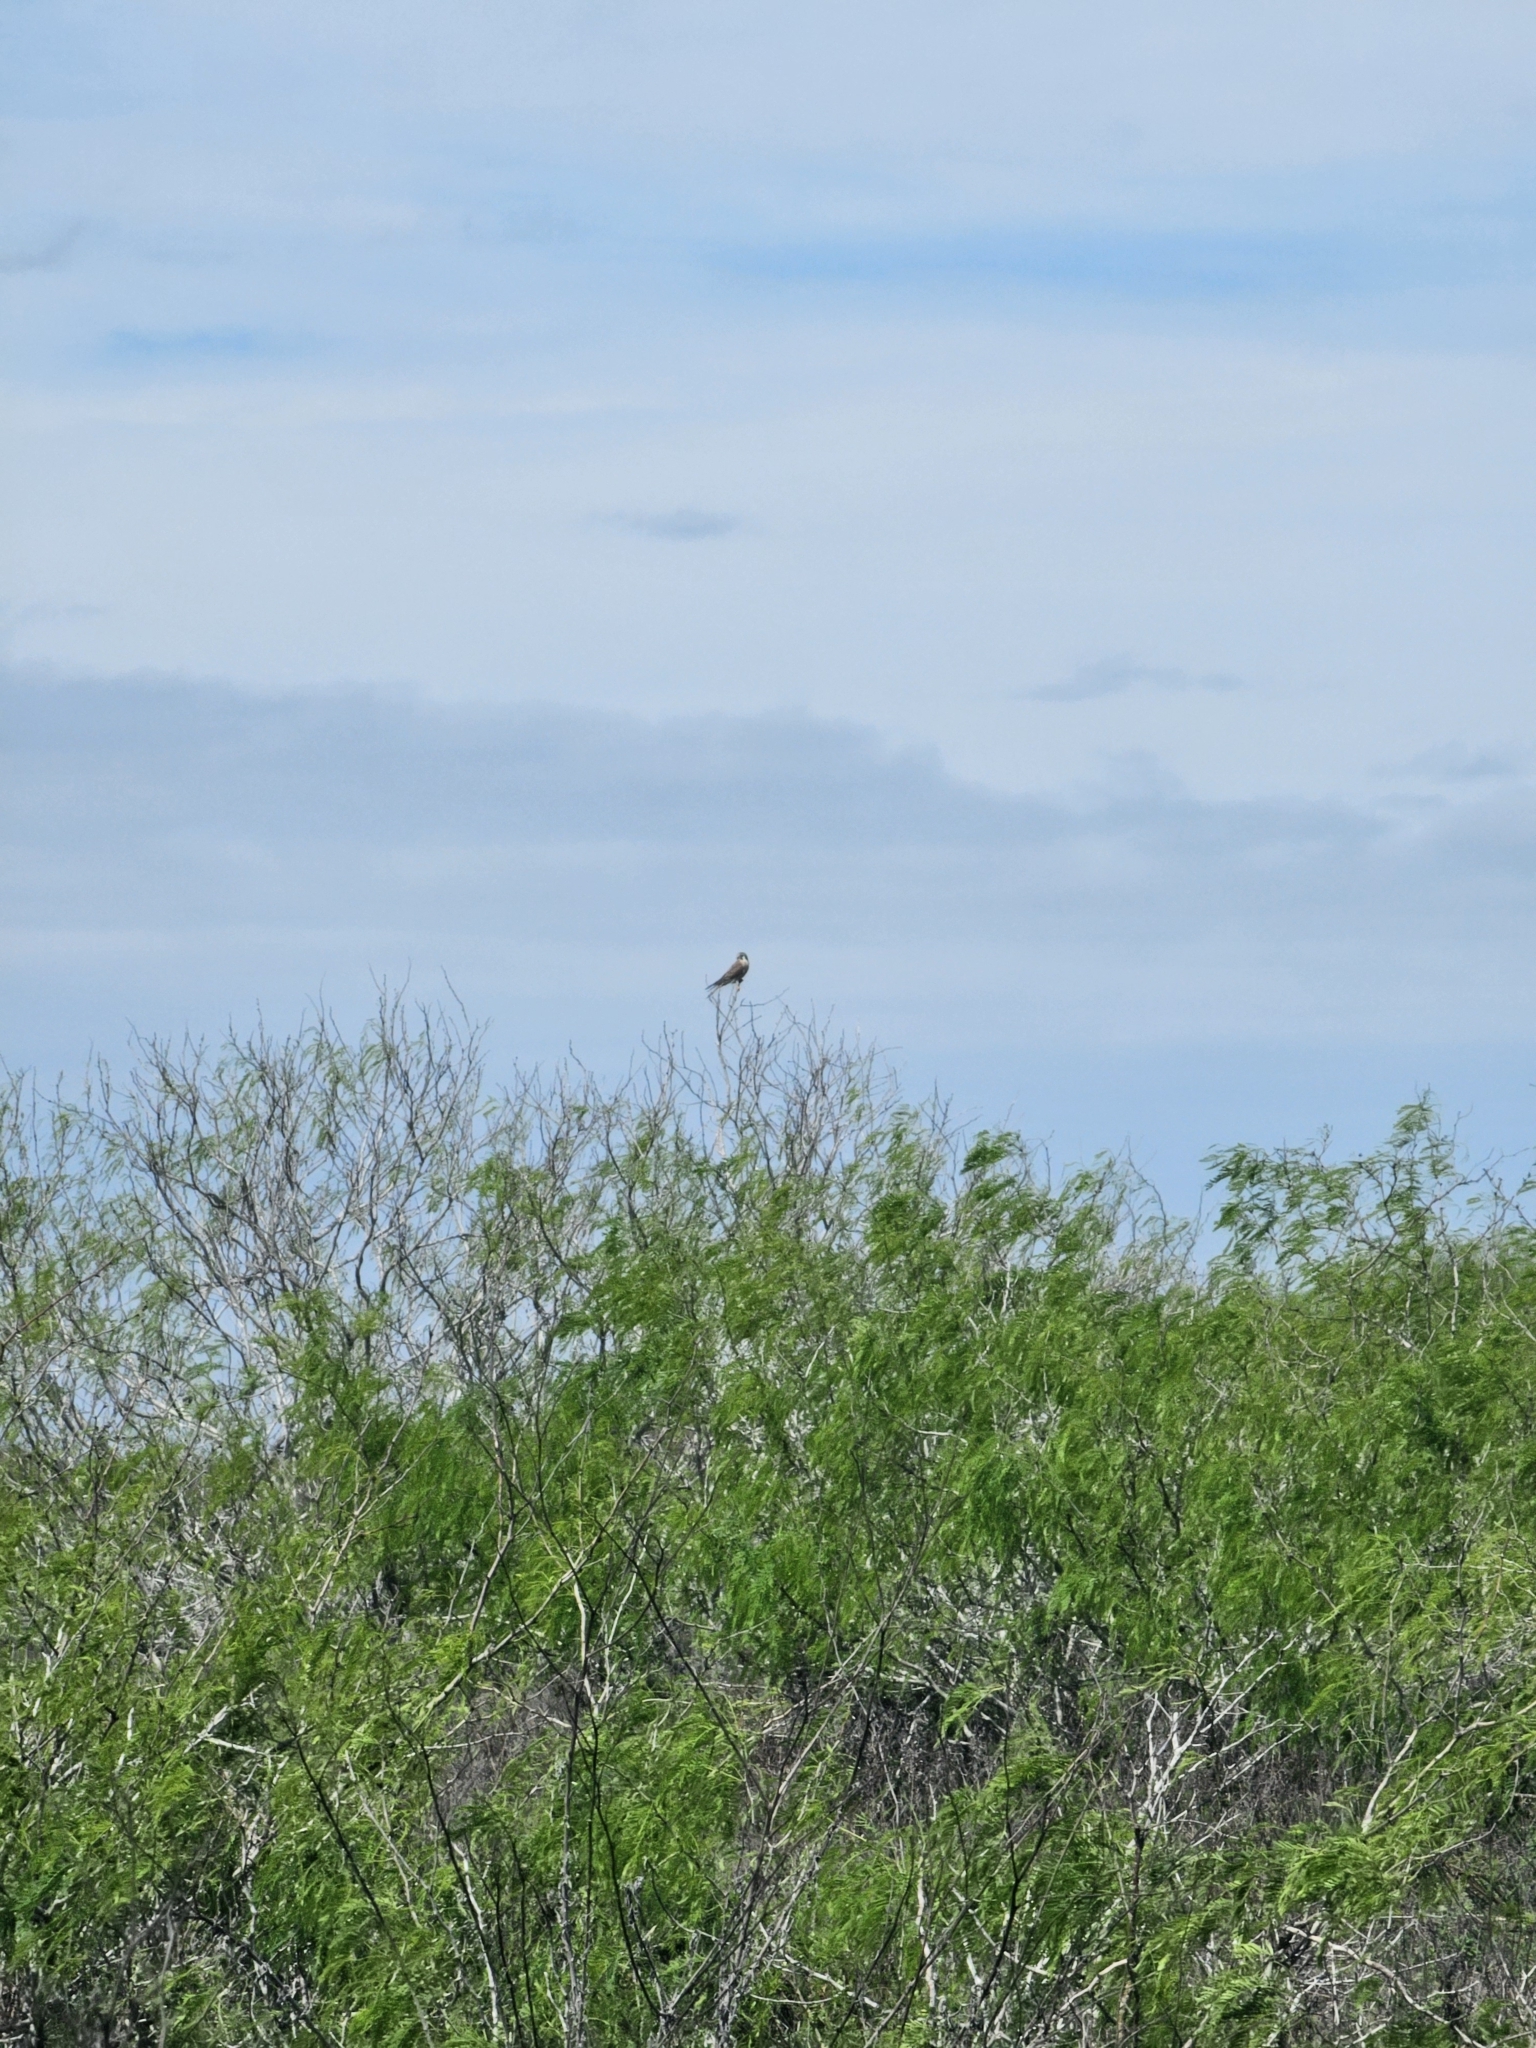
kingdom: Animalia
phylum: Chordata
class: Aves
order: Falconiformes
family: Falconidae
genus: Falco
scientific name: Falco sparverius
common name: American kestrel
